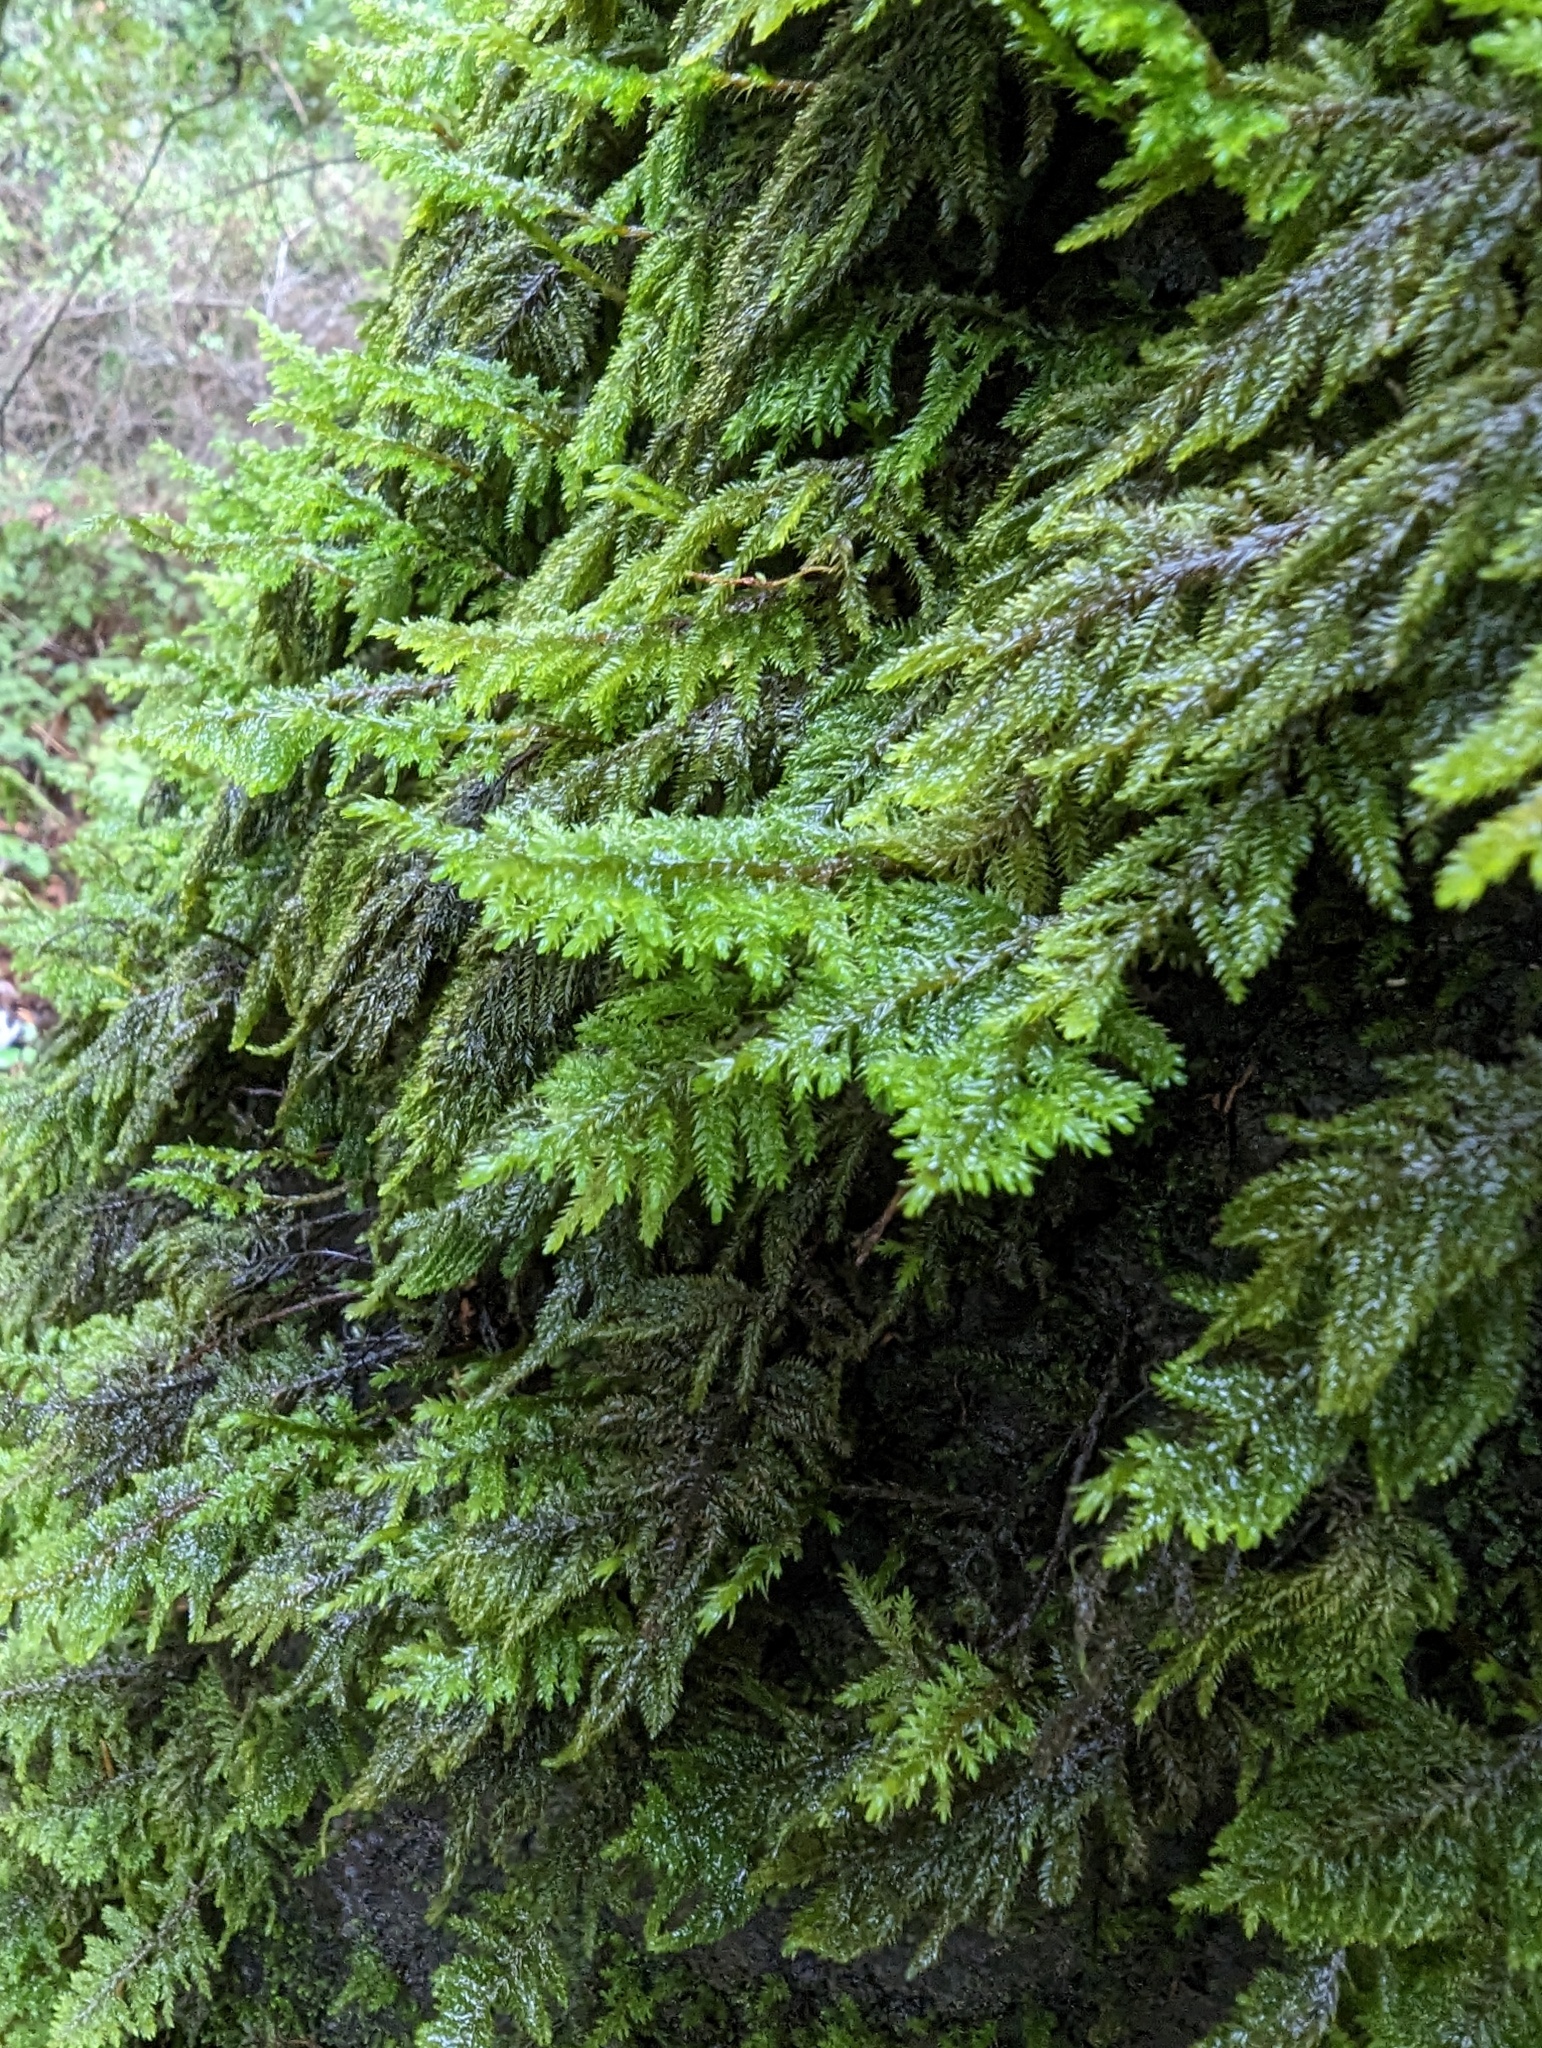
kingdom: Plantae
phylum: Bryophyta
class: Bryopsida
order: Hypnales
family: Cryphaeaceae
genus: Dendroalsia
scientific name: Dendroalsia abietina
